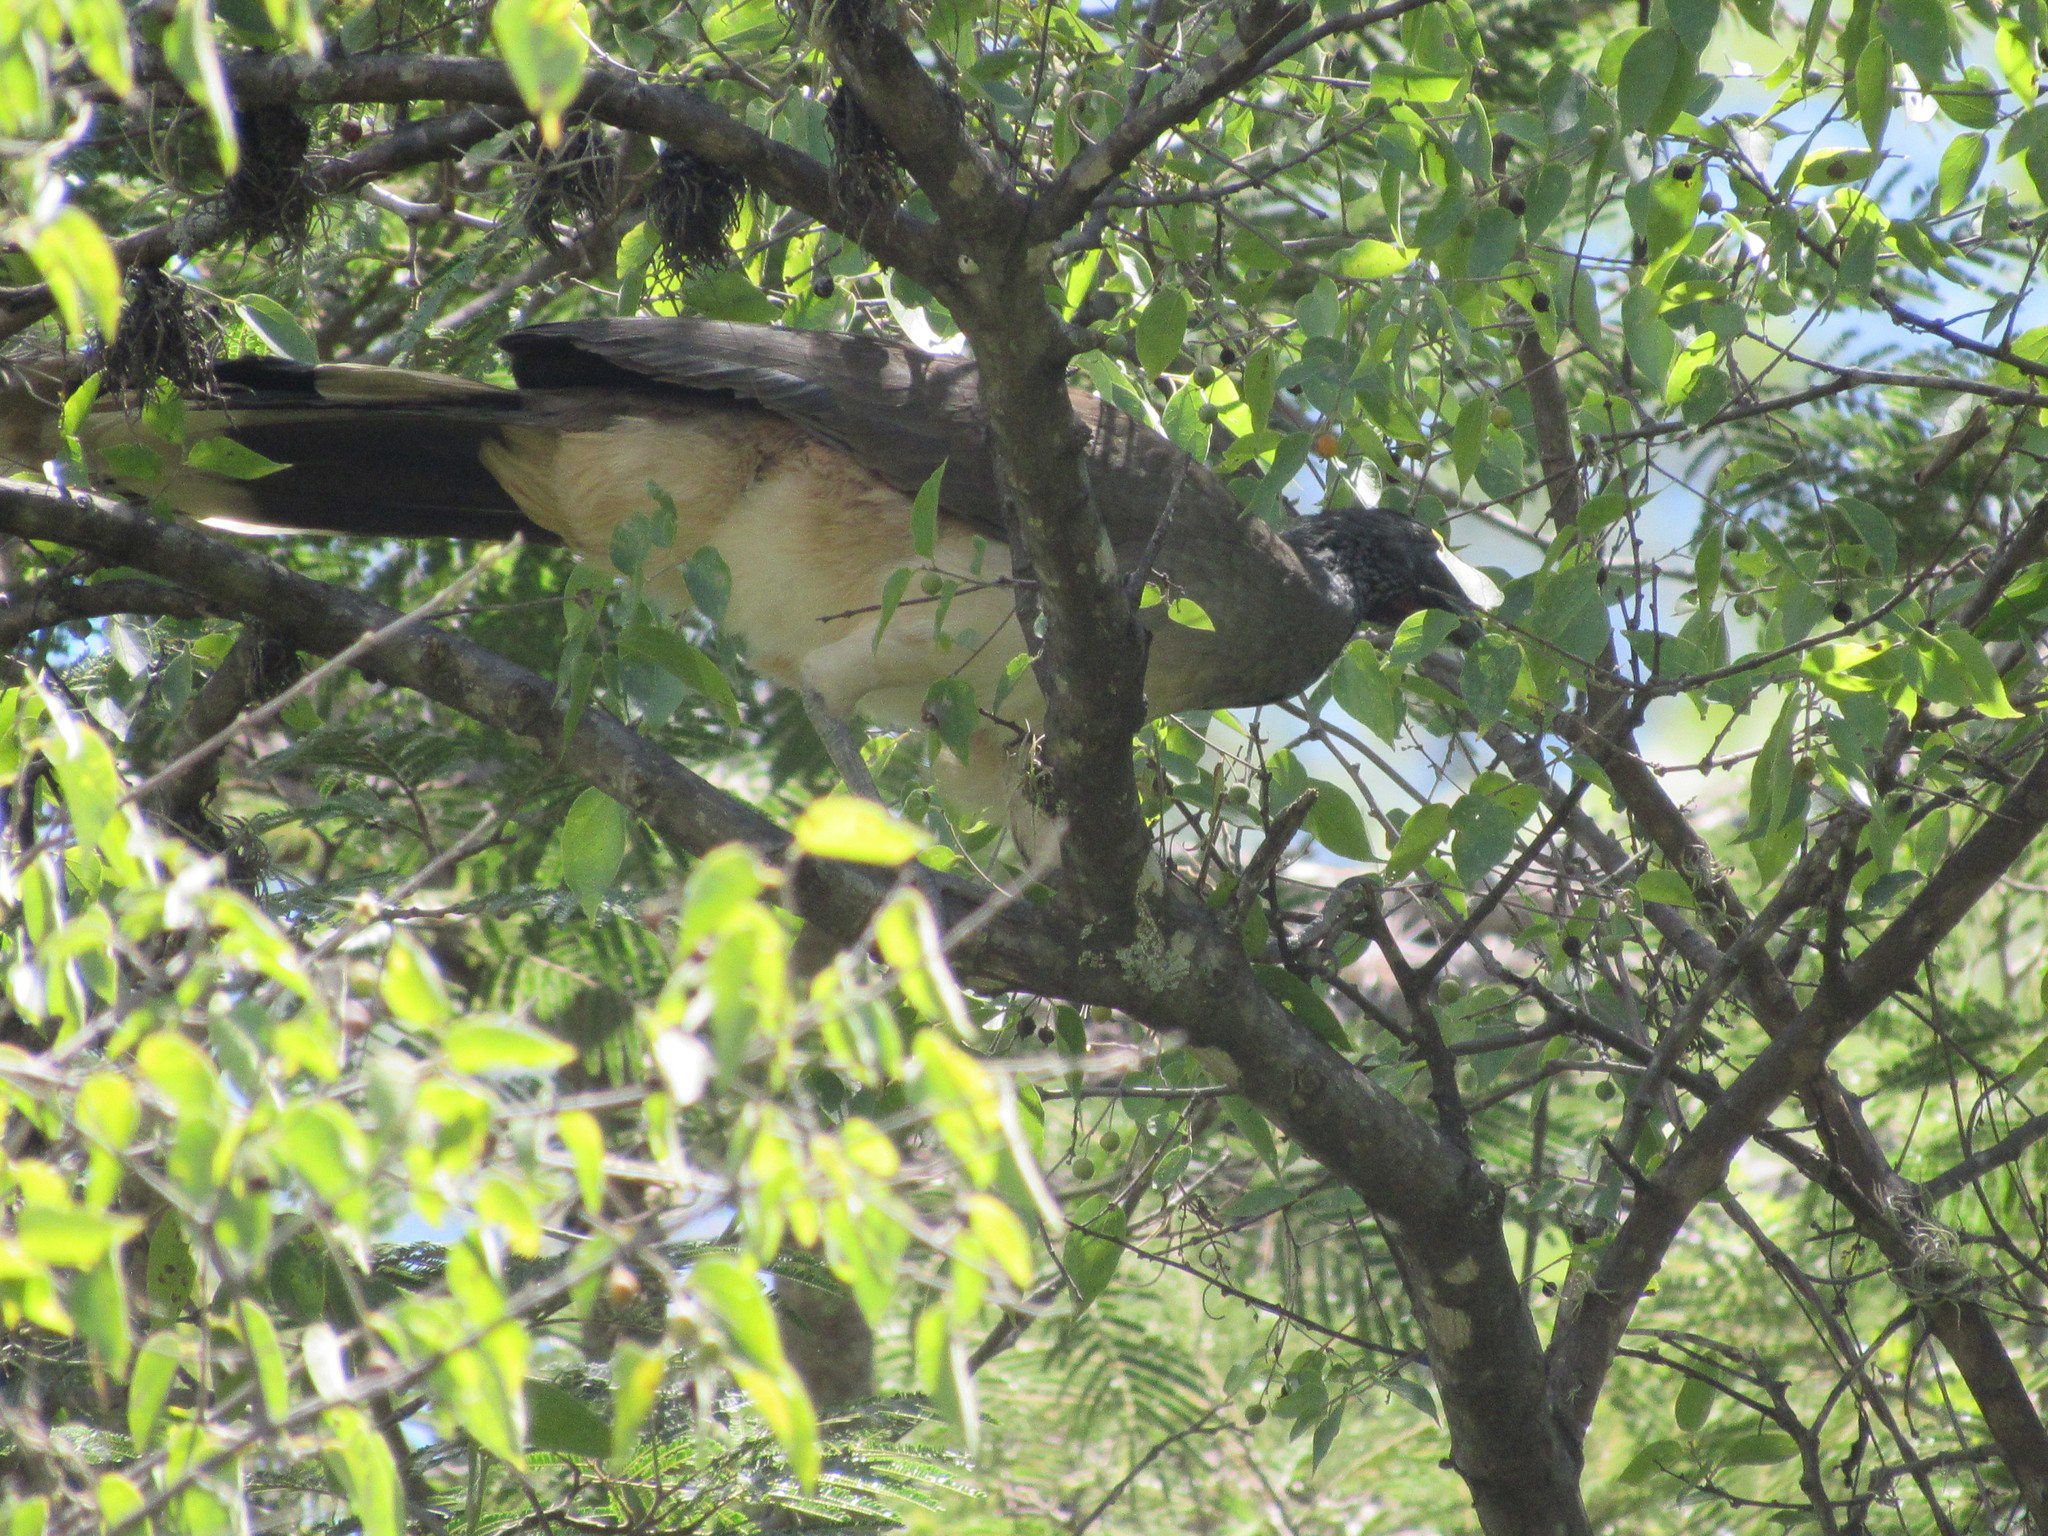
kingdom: Animalia
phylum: Chordata
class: Aves
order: Galliformes
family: Cracidae
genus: Ortalis
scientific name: Ortalis poliocephala
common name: West mexican chachalaca
